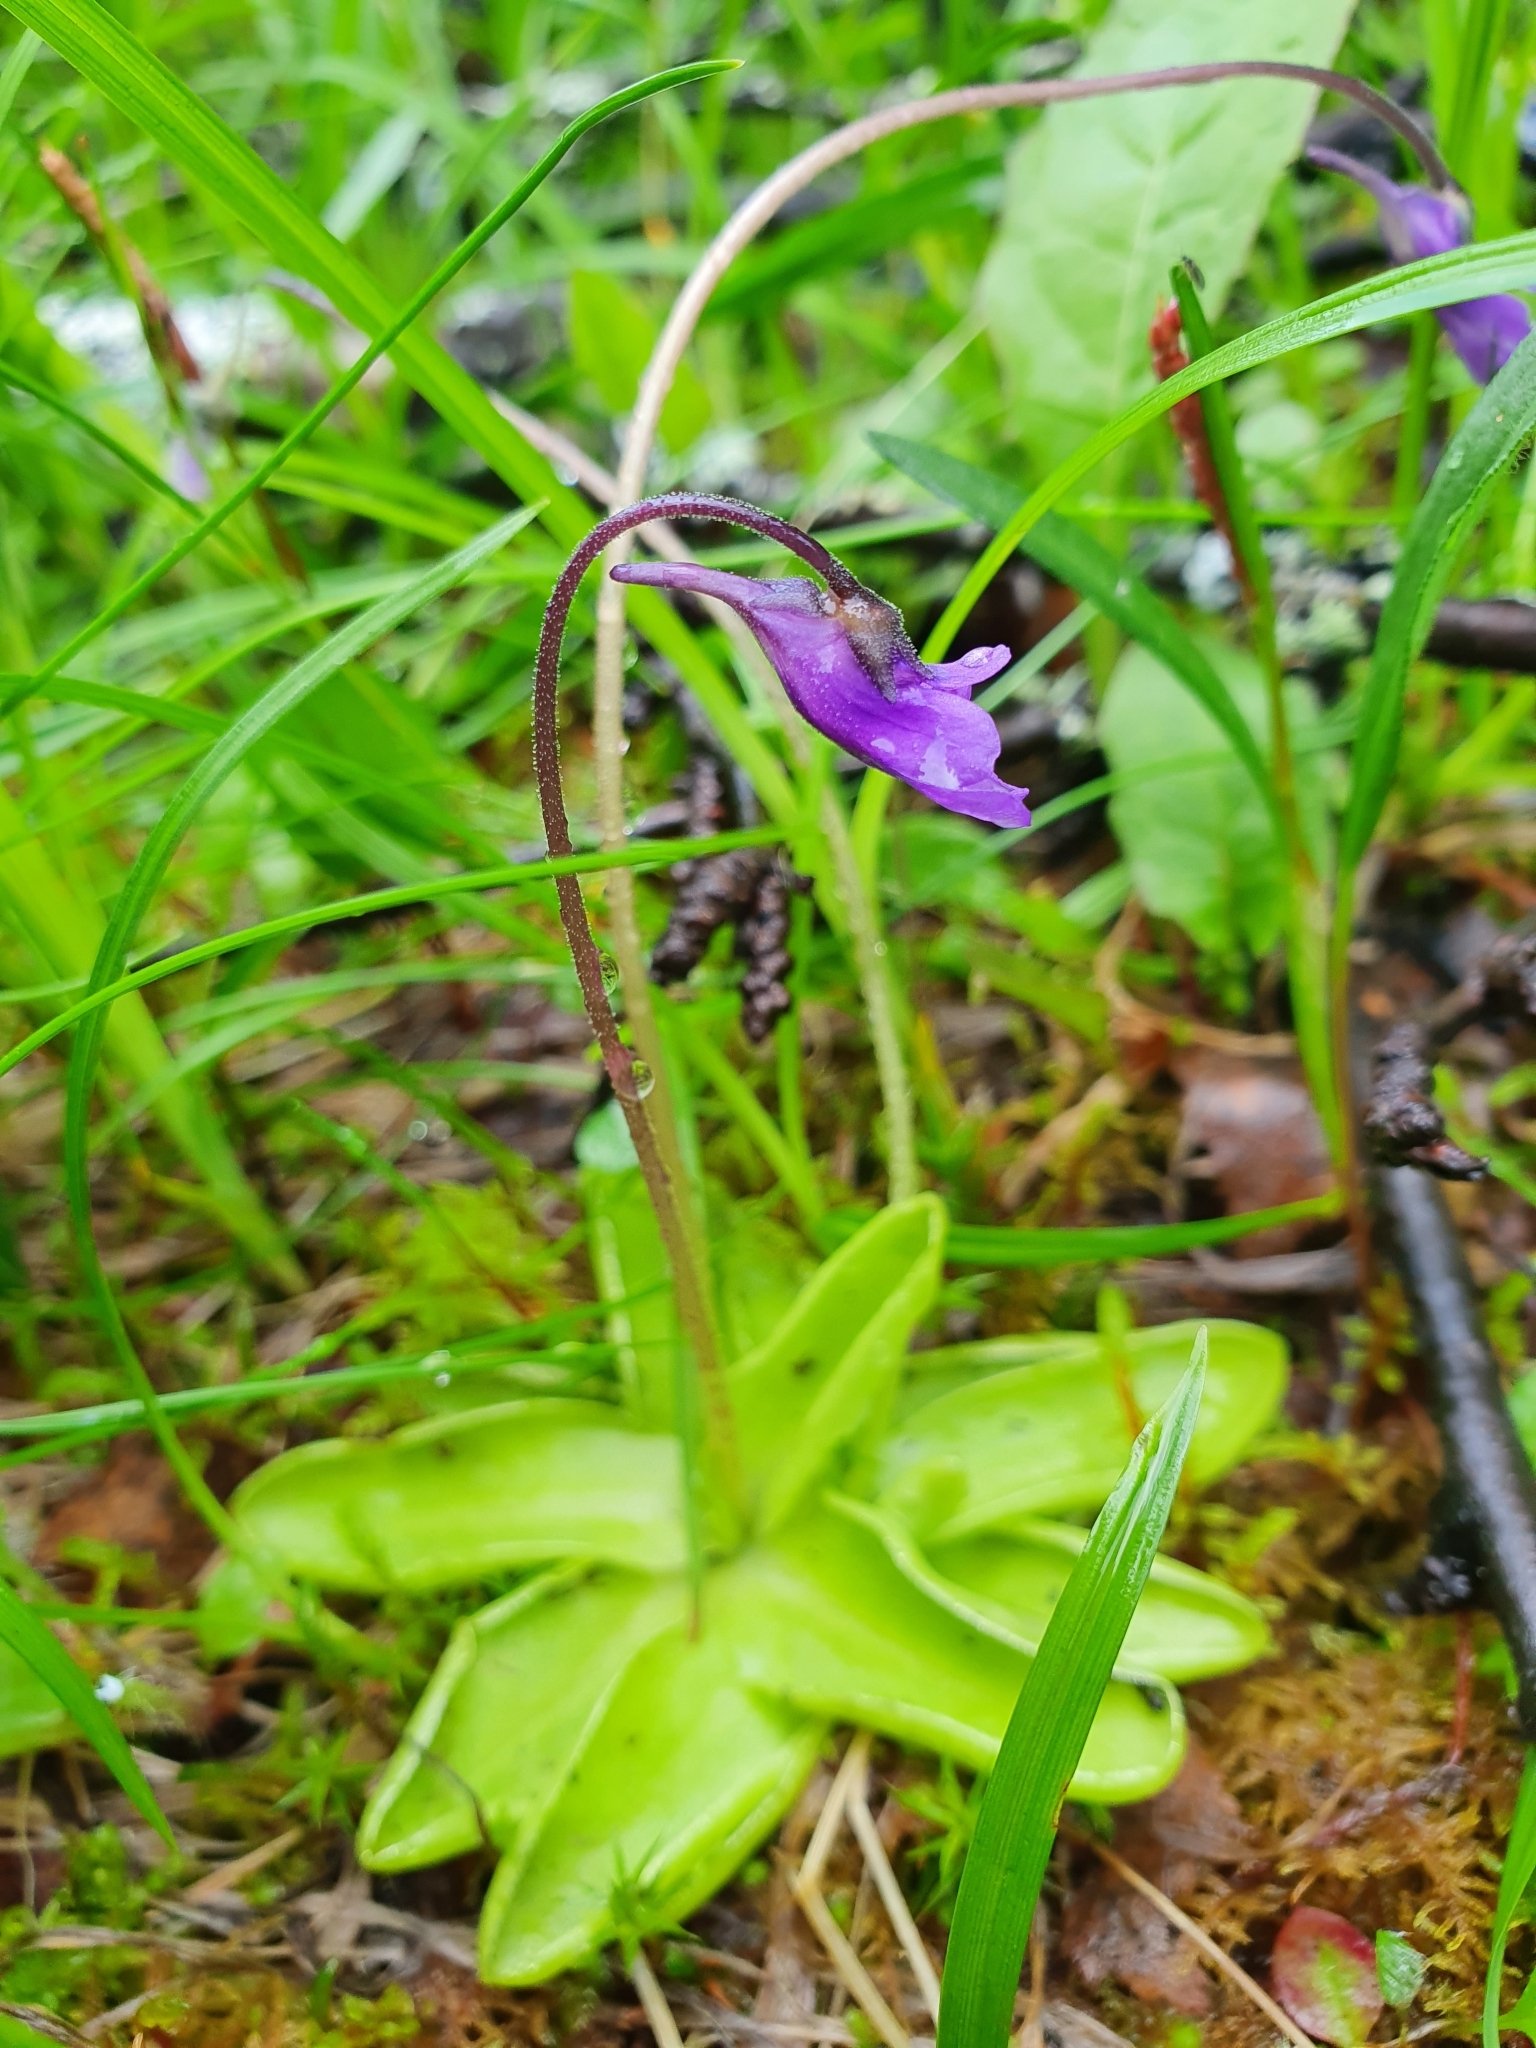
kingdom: Plantae
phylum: Tracheophyta
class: Magnoliopsida
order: Lamiales
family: Lentibulariaceae
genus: Pinguicula
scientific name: Pinguicula vulgaris
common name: Common butterwort
